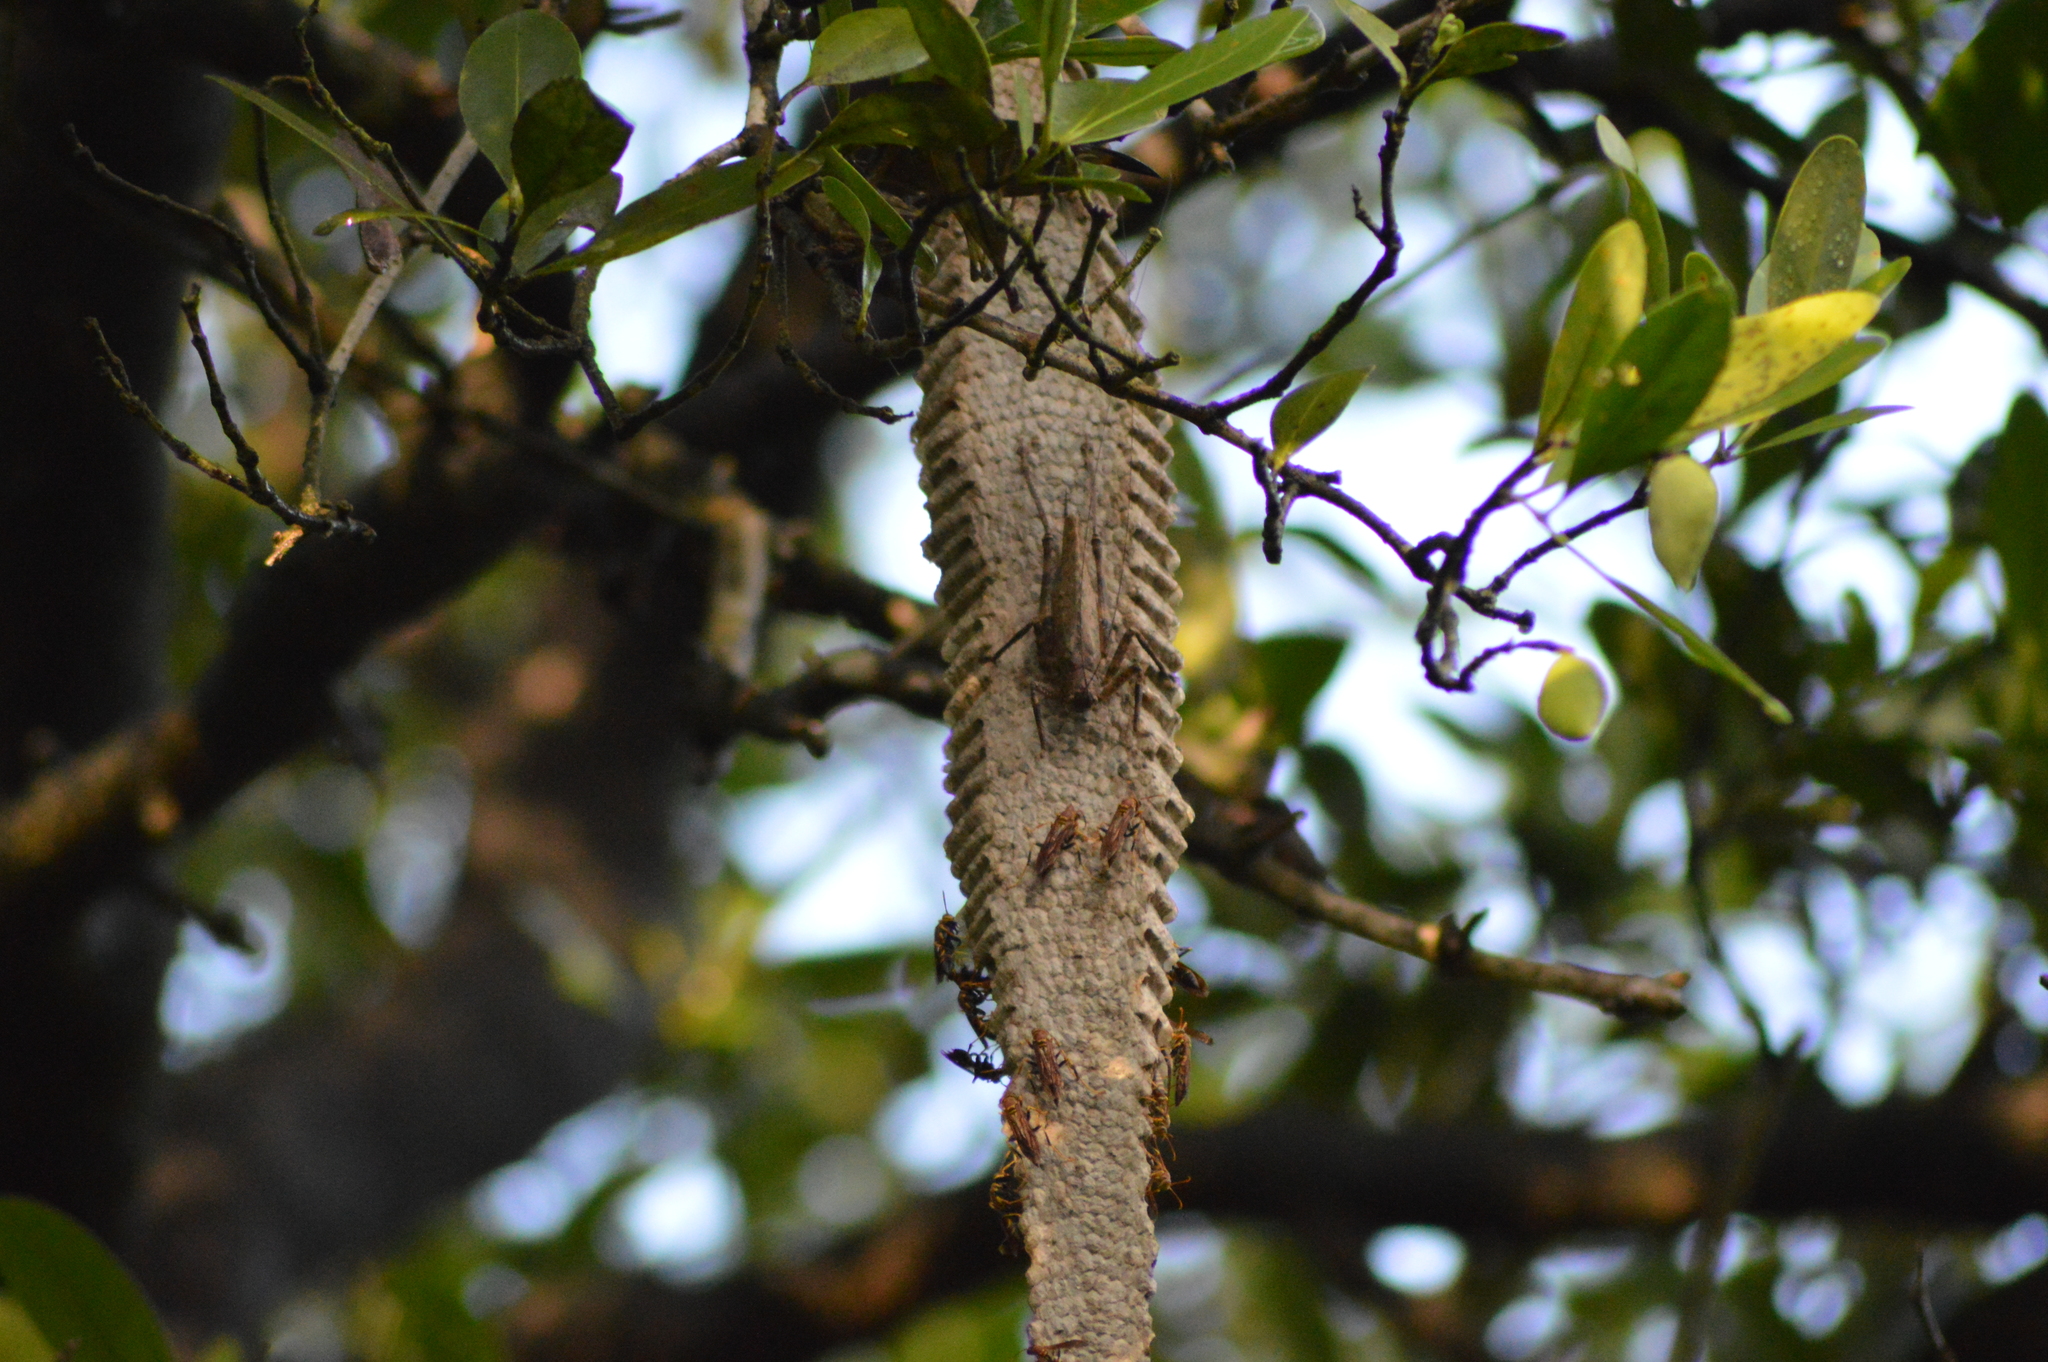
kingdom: Animalia
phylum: Arthropoda
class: Insecta
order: Hymenoptera
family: Eumenidae
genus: Polistes
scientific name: Polistes instabilis
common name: Unstable paper wasp
